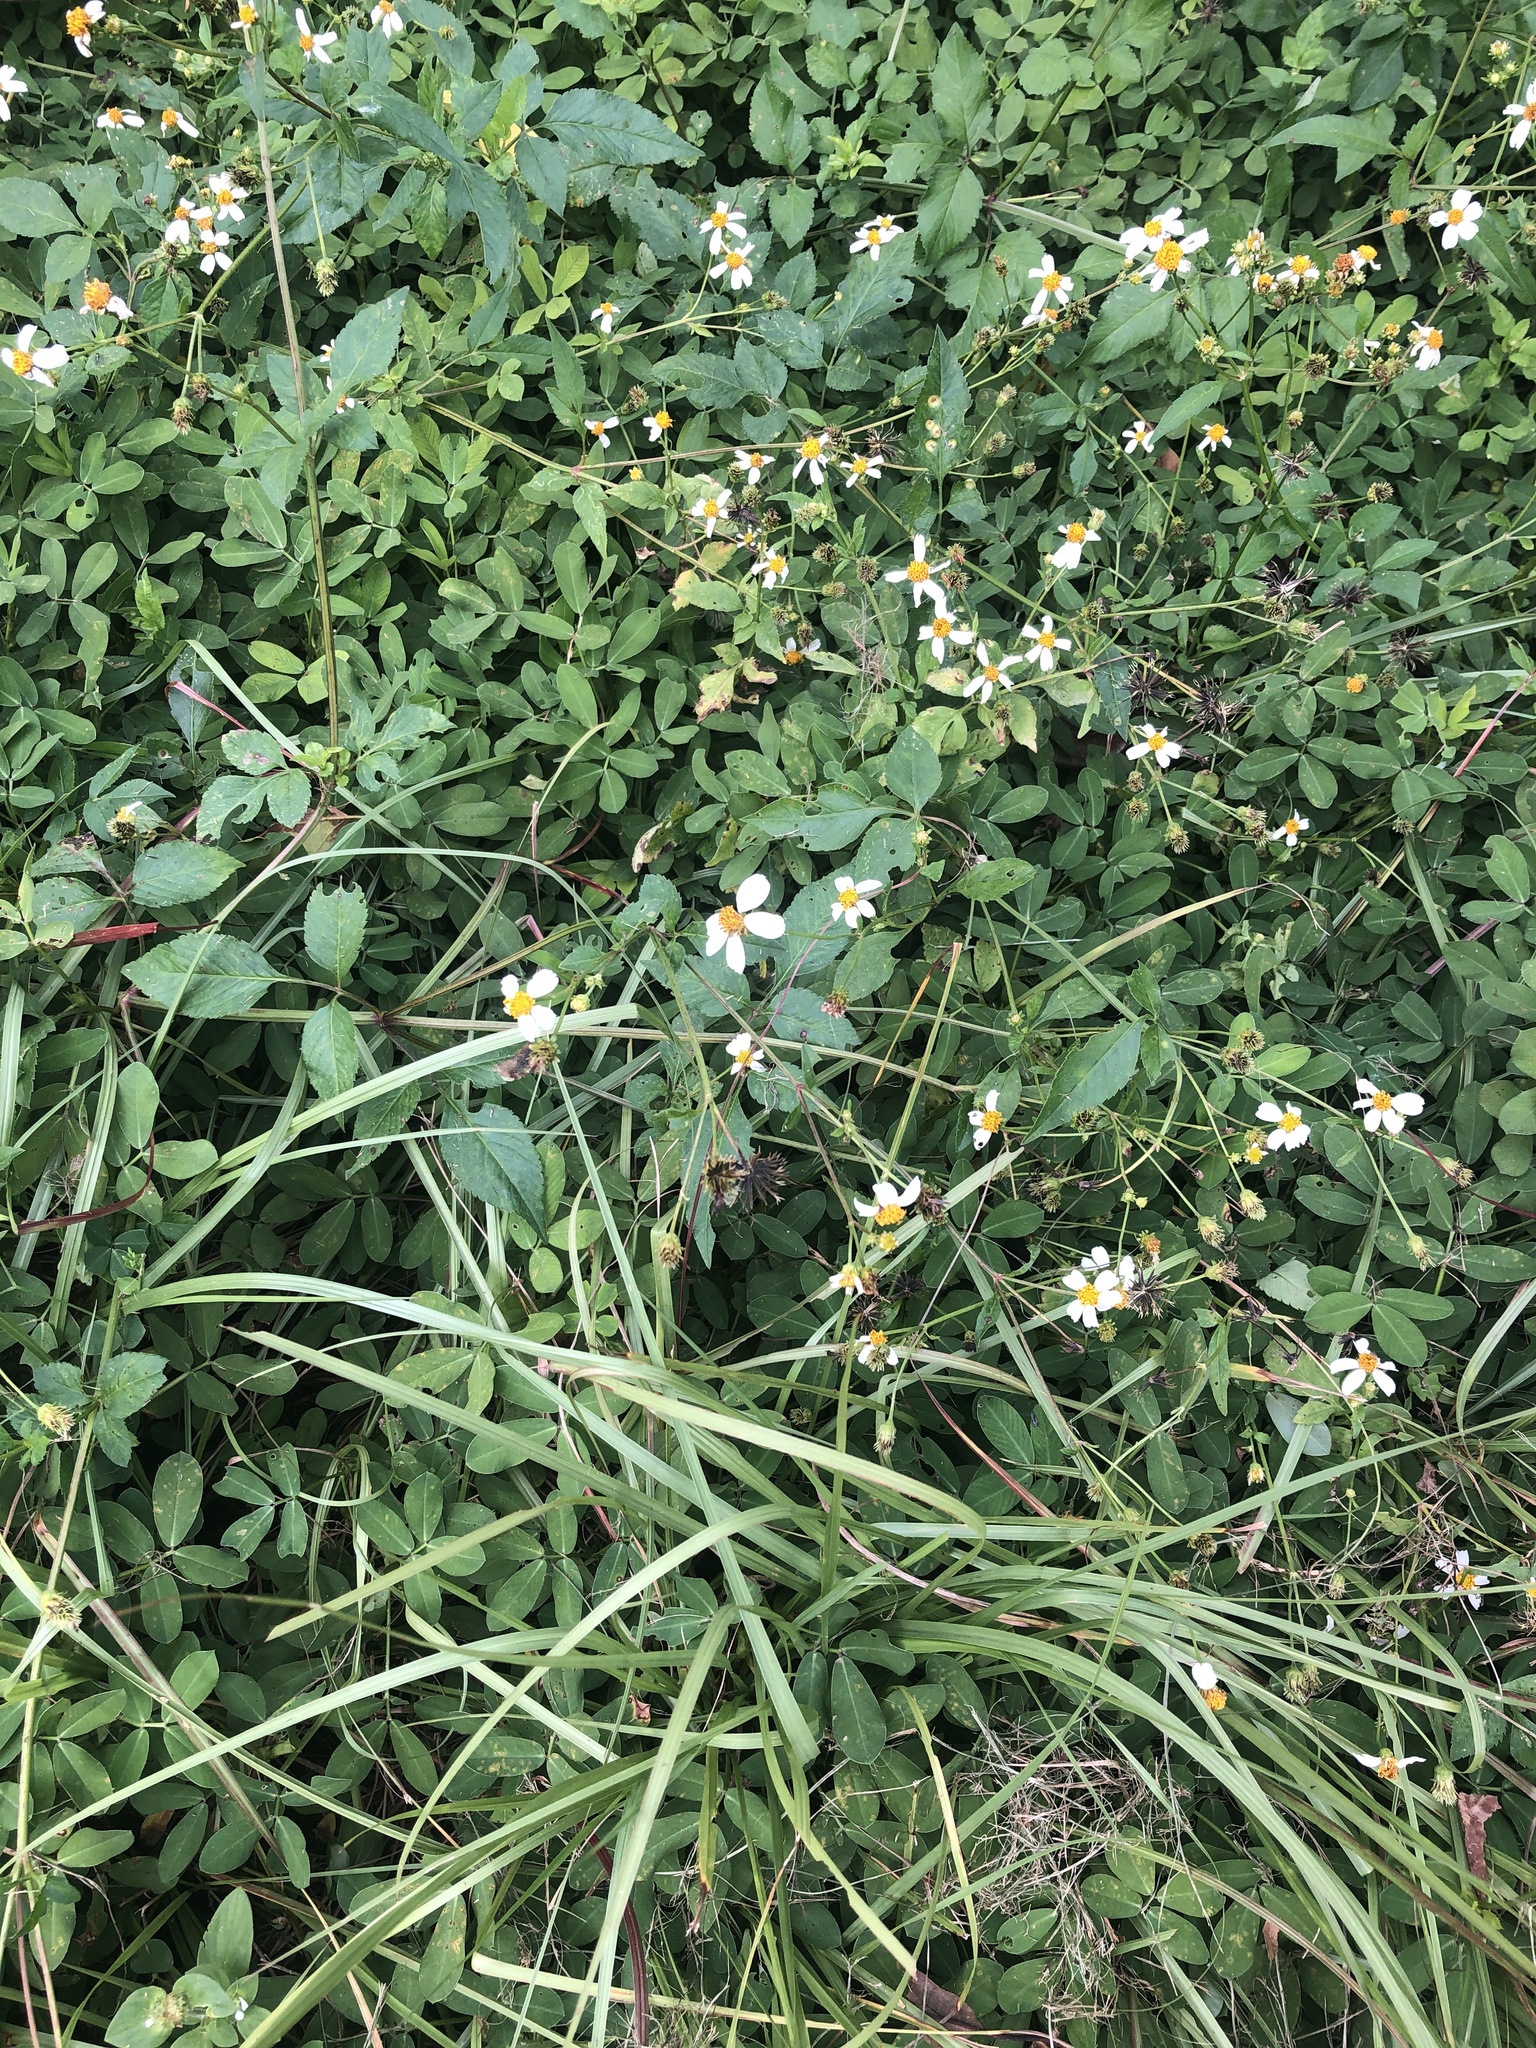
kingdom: Plantae
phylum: Tracheophyta
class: Magnoliopsida
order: Asterales
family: Asteraceae
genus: Bidens
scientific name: Bidens alba
